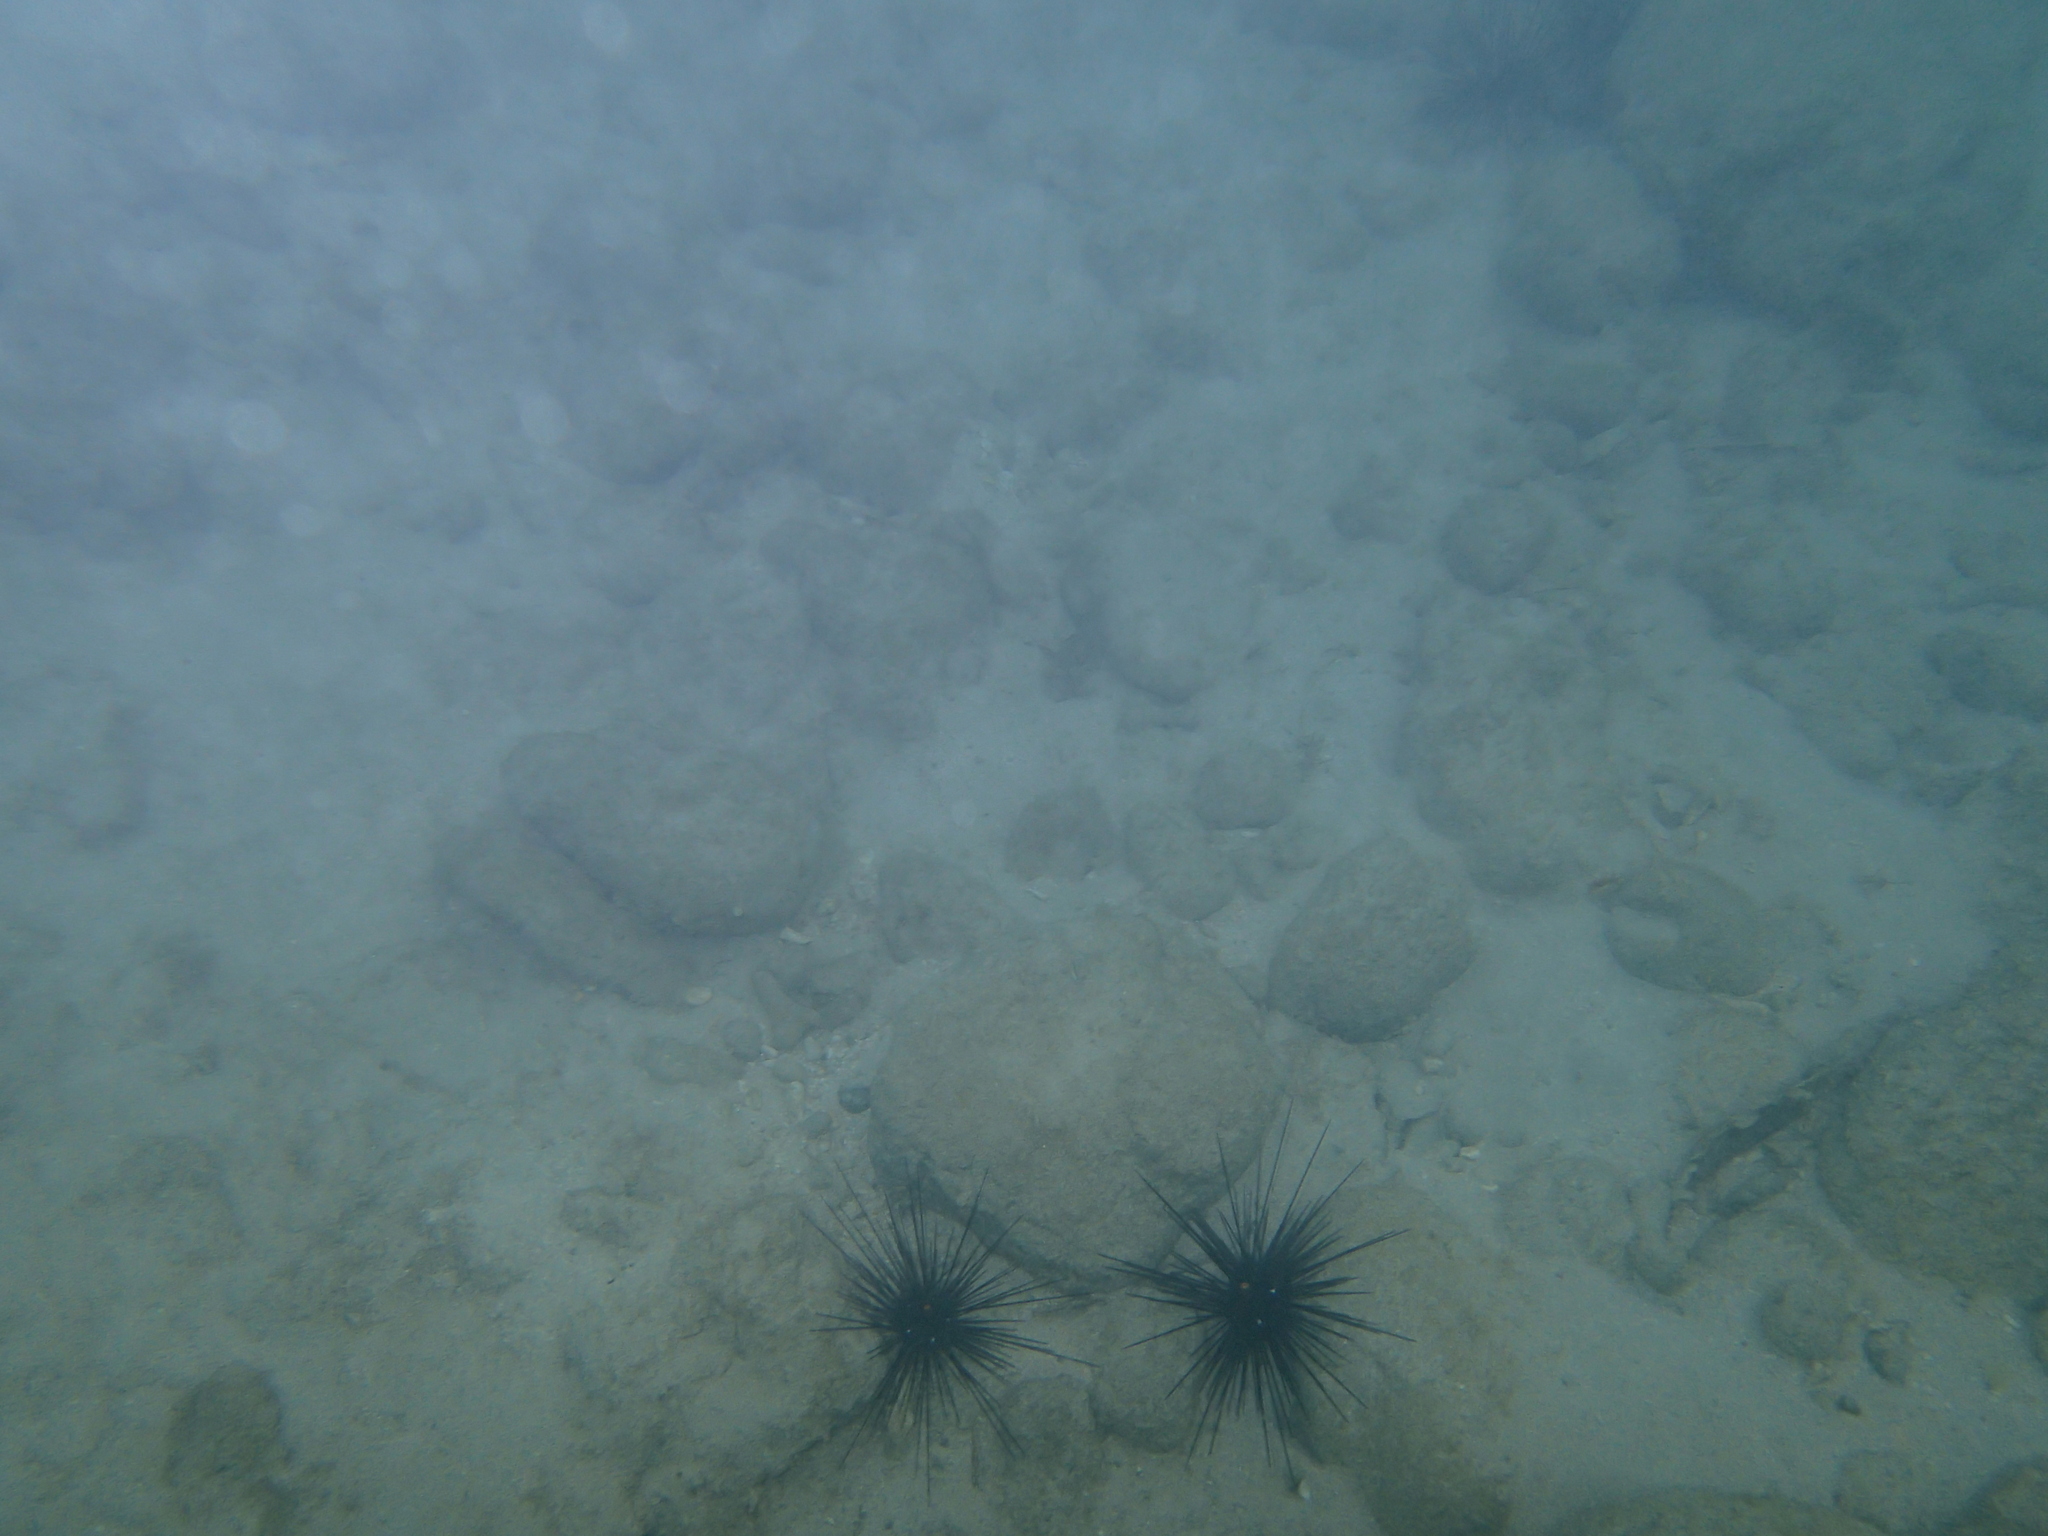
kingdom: Animalia
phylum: Echinodermata
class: Echinoidea
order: Diadematoida
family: Diadematidae
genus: Diadema
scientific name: Diadema setosum
